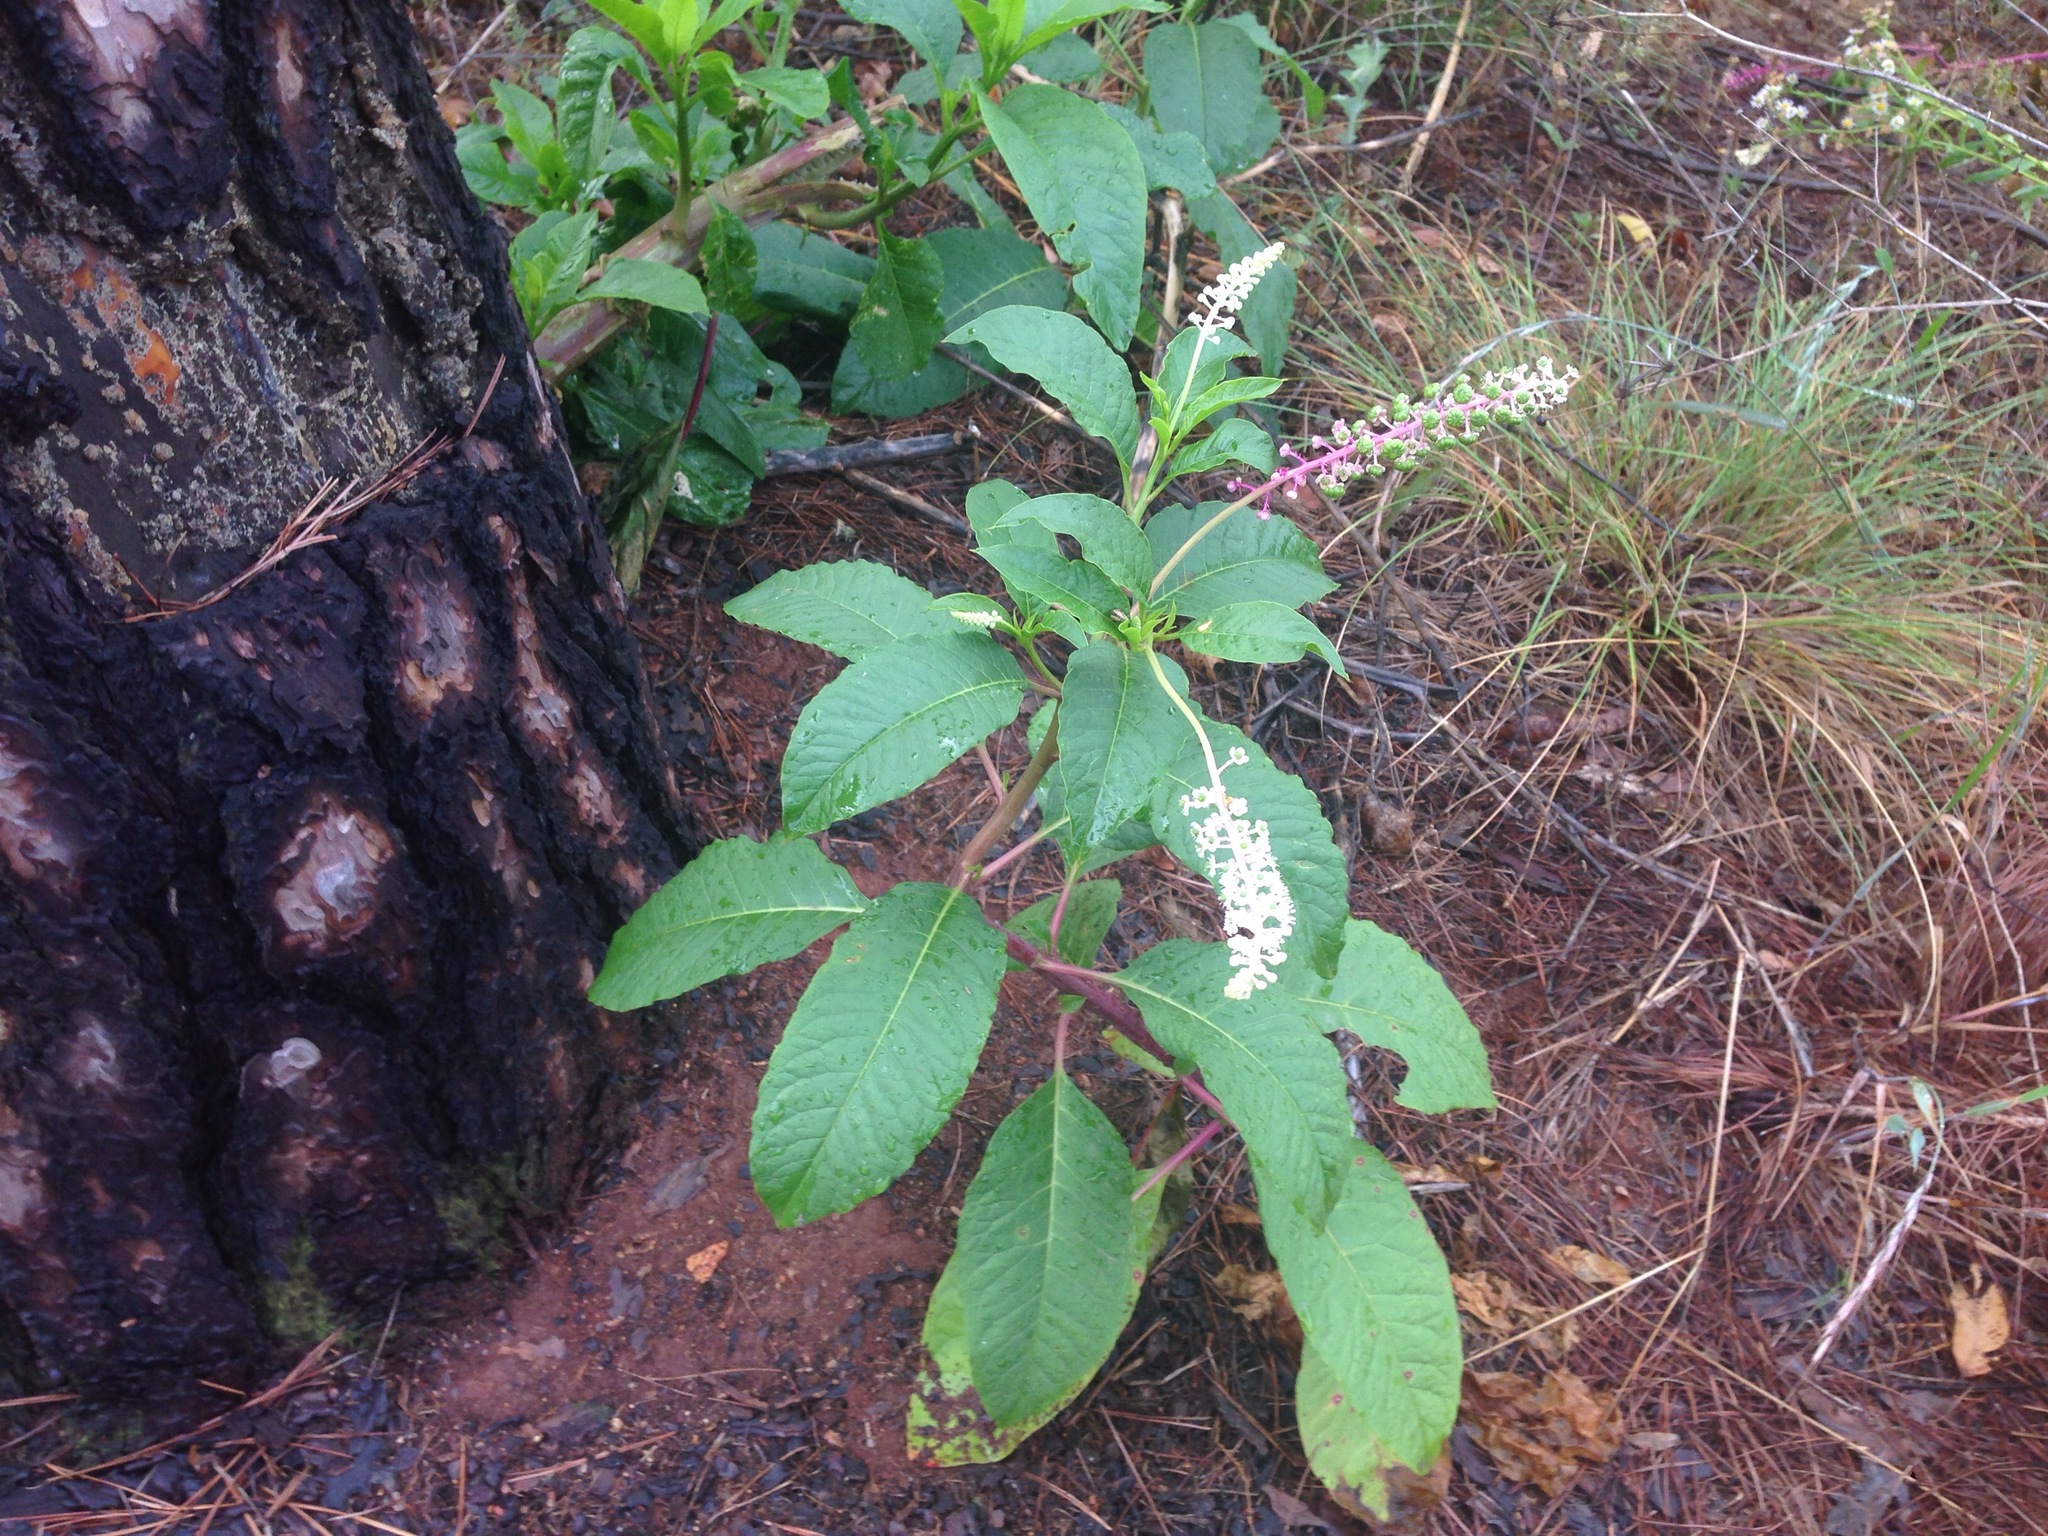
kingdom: Plantae
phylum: Tracheophyta
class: Magnoliopsida
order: Caryophyllales
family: Phytolaccaceae
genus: Phytolacca
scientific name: Phytolacca americana
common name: American pokeweed
